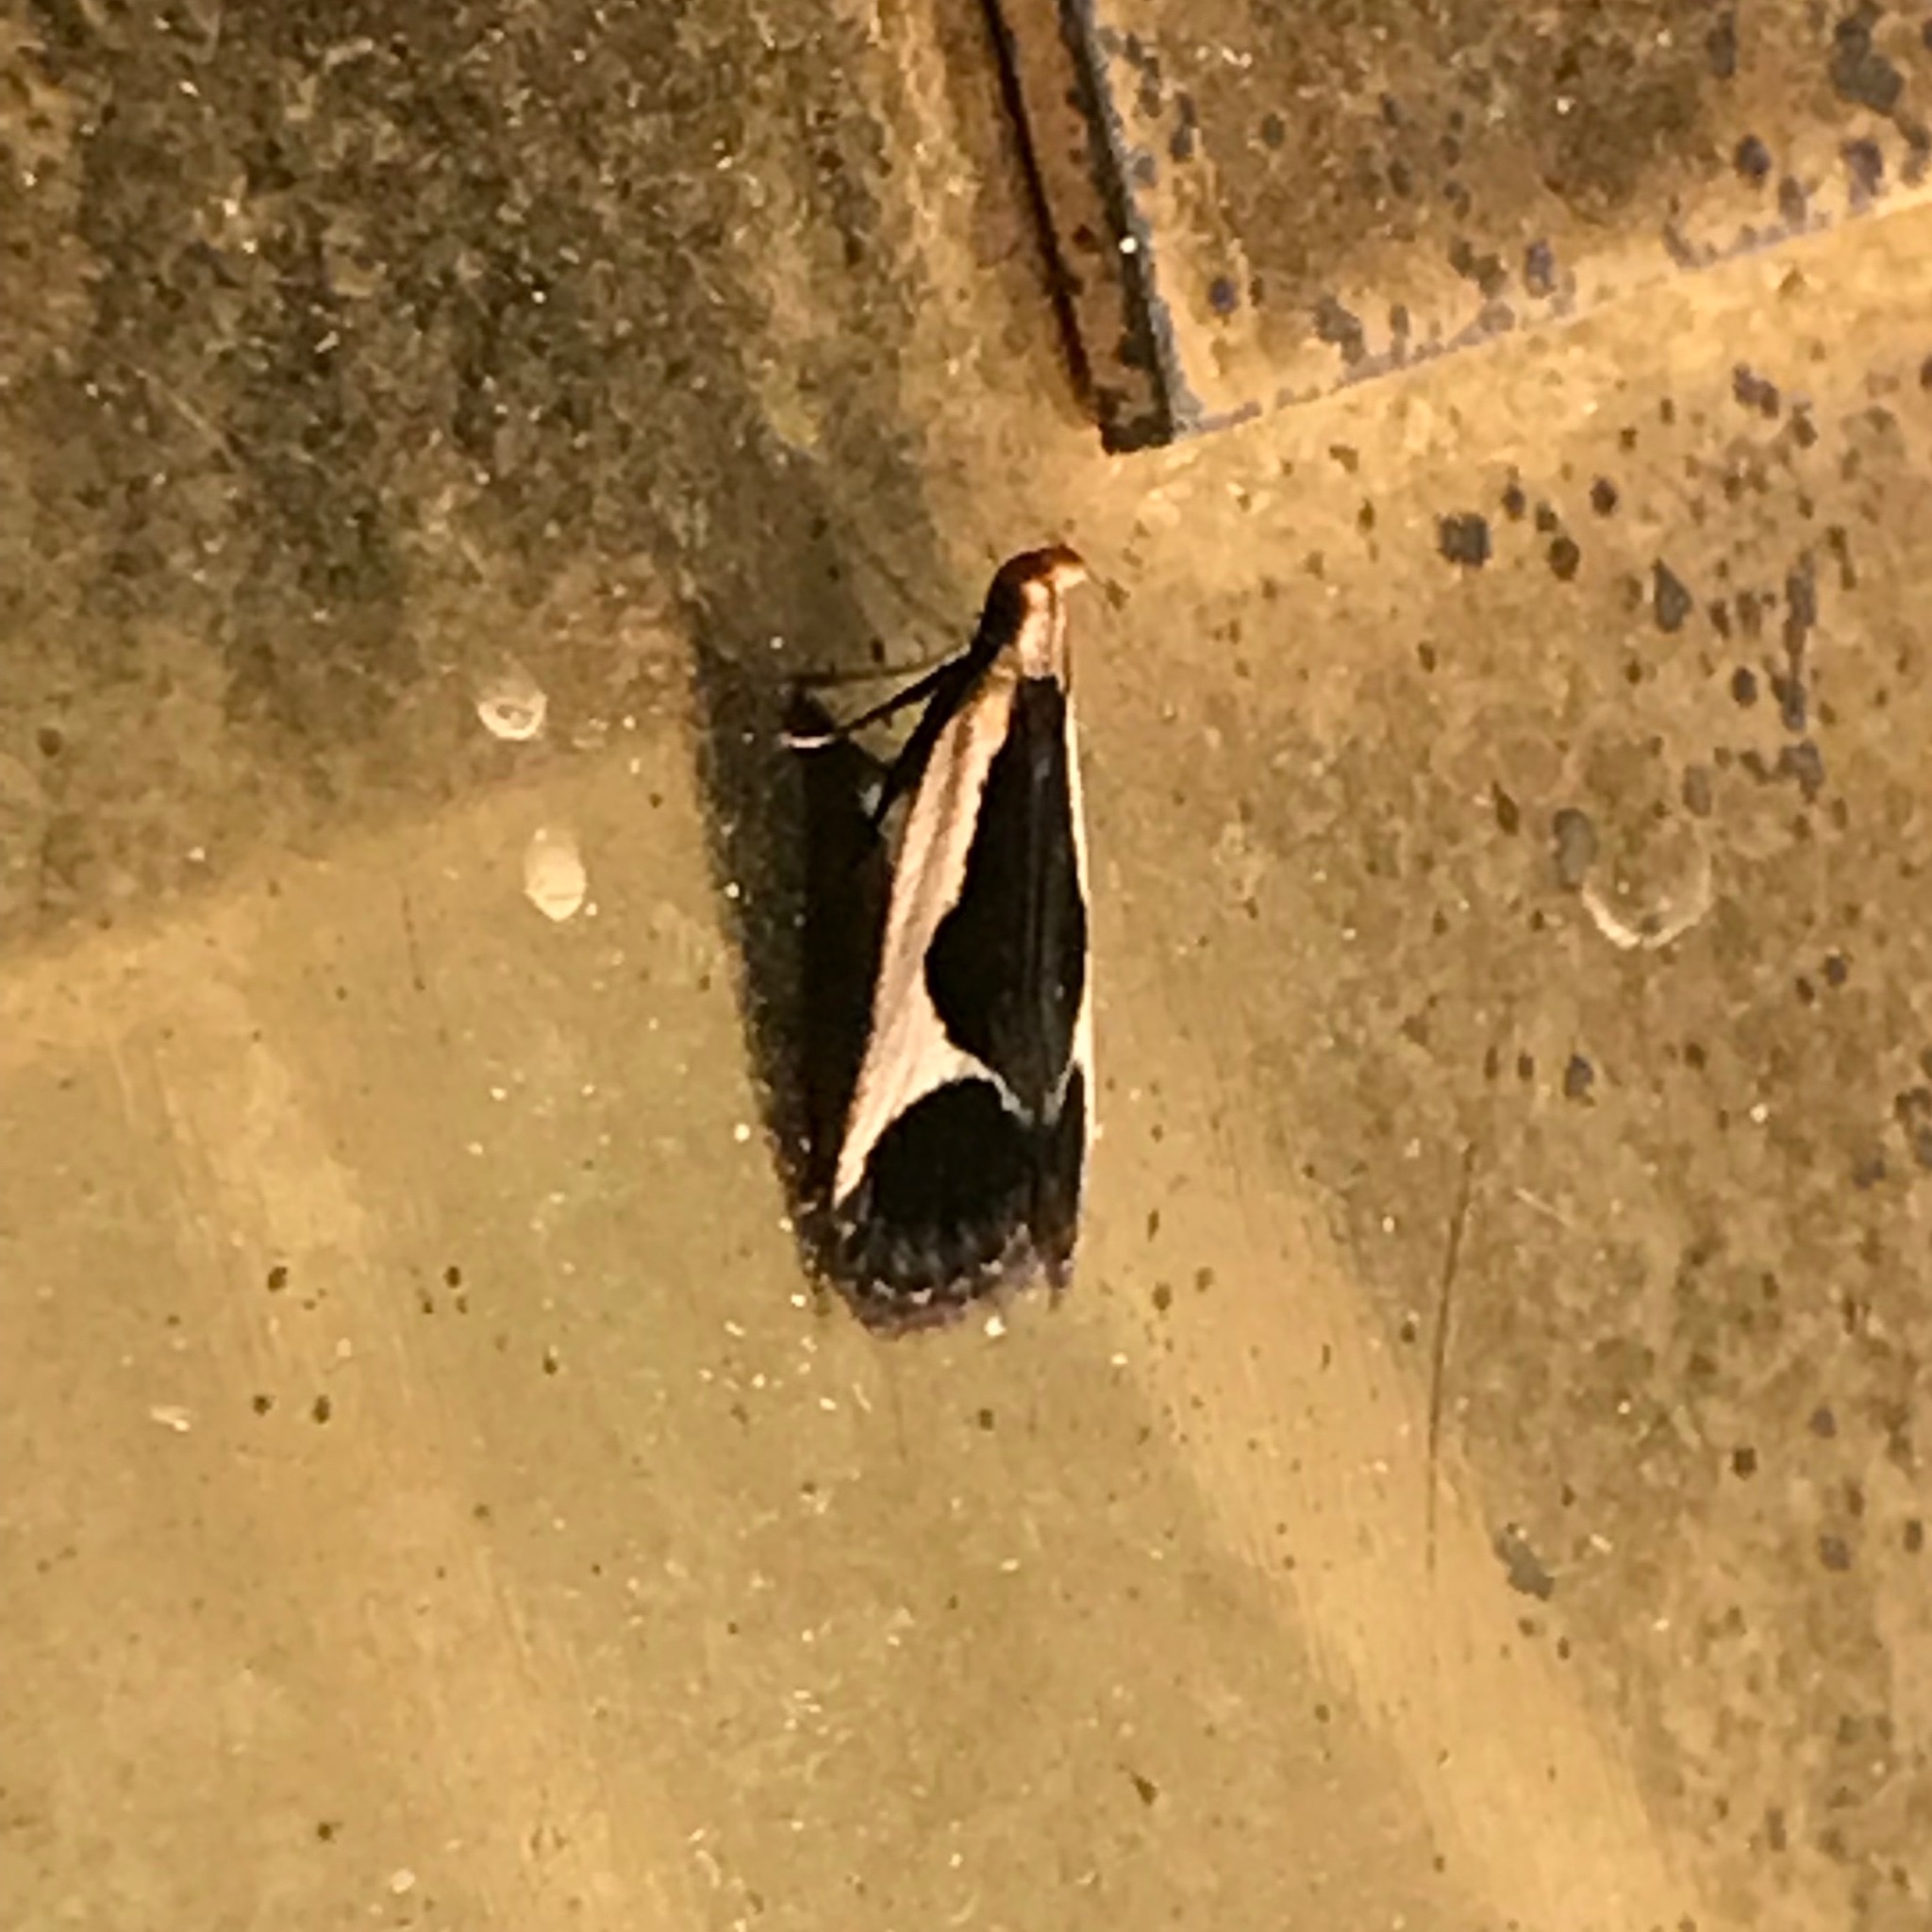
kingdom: Animalia
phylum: Arthropoda
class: Insecta
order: Lepidoptera
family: Gelechiidae
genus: Dichomeris
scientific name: Dichomeris flavocostella
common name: Cream-edged dichomeris moth
